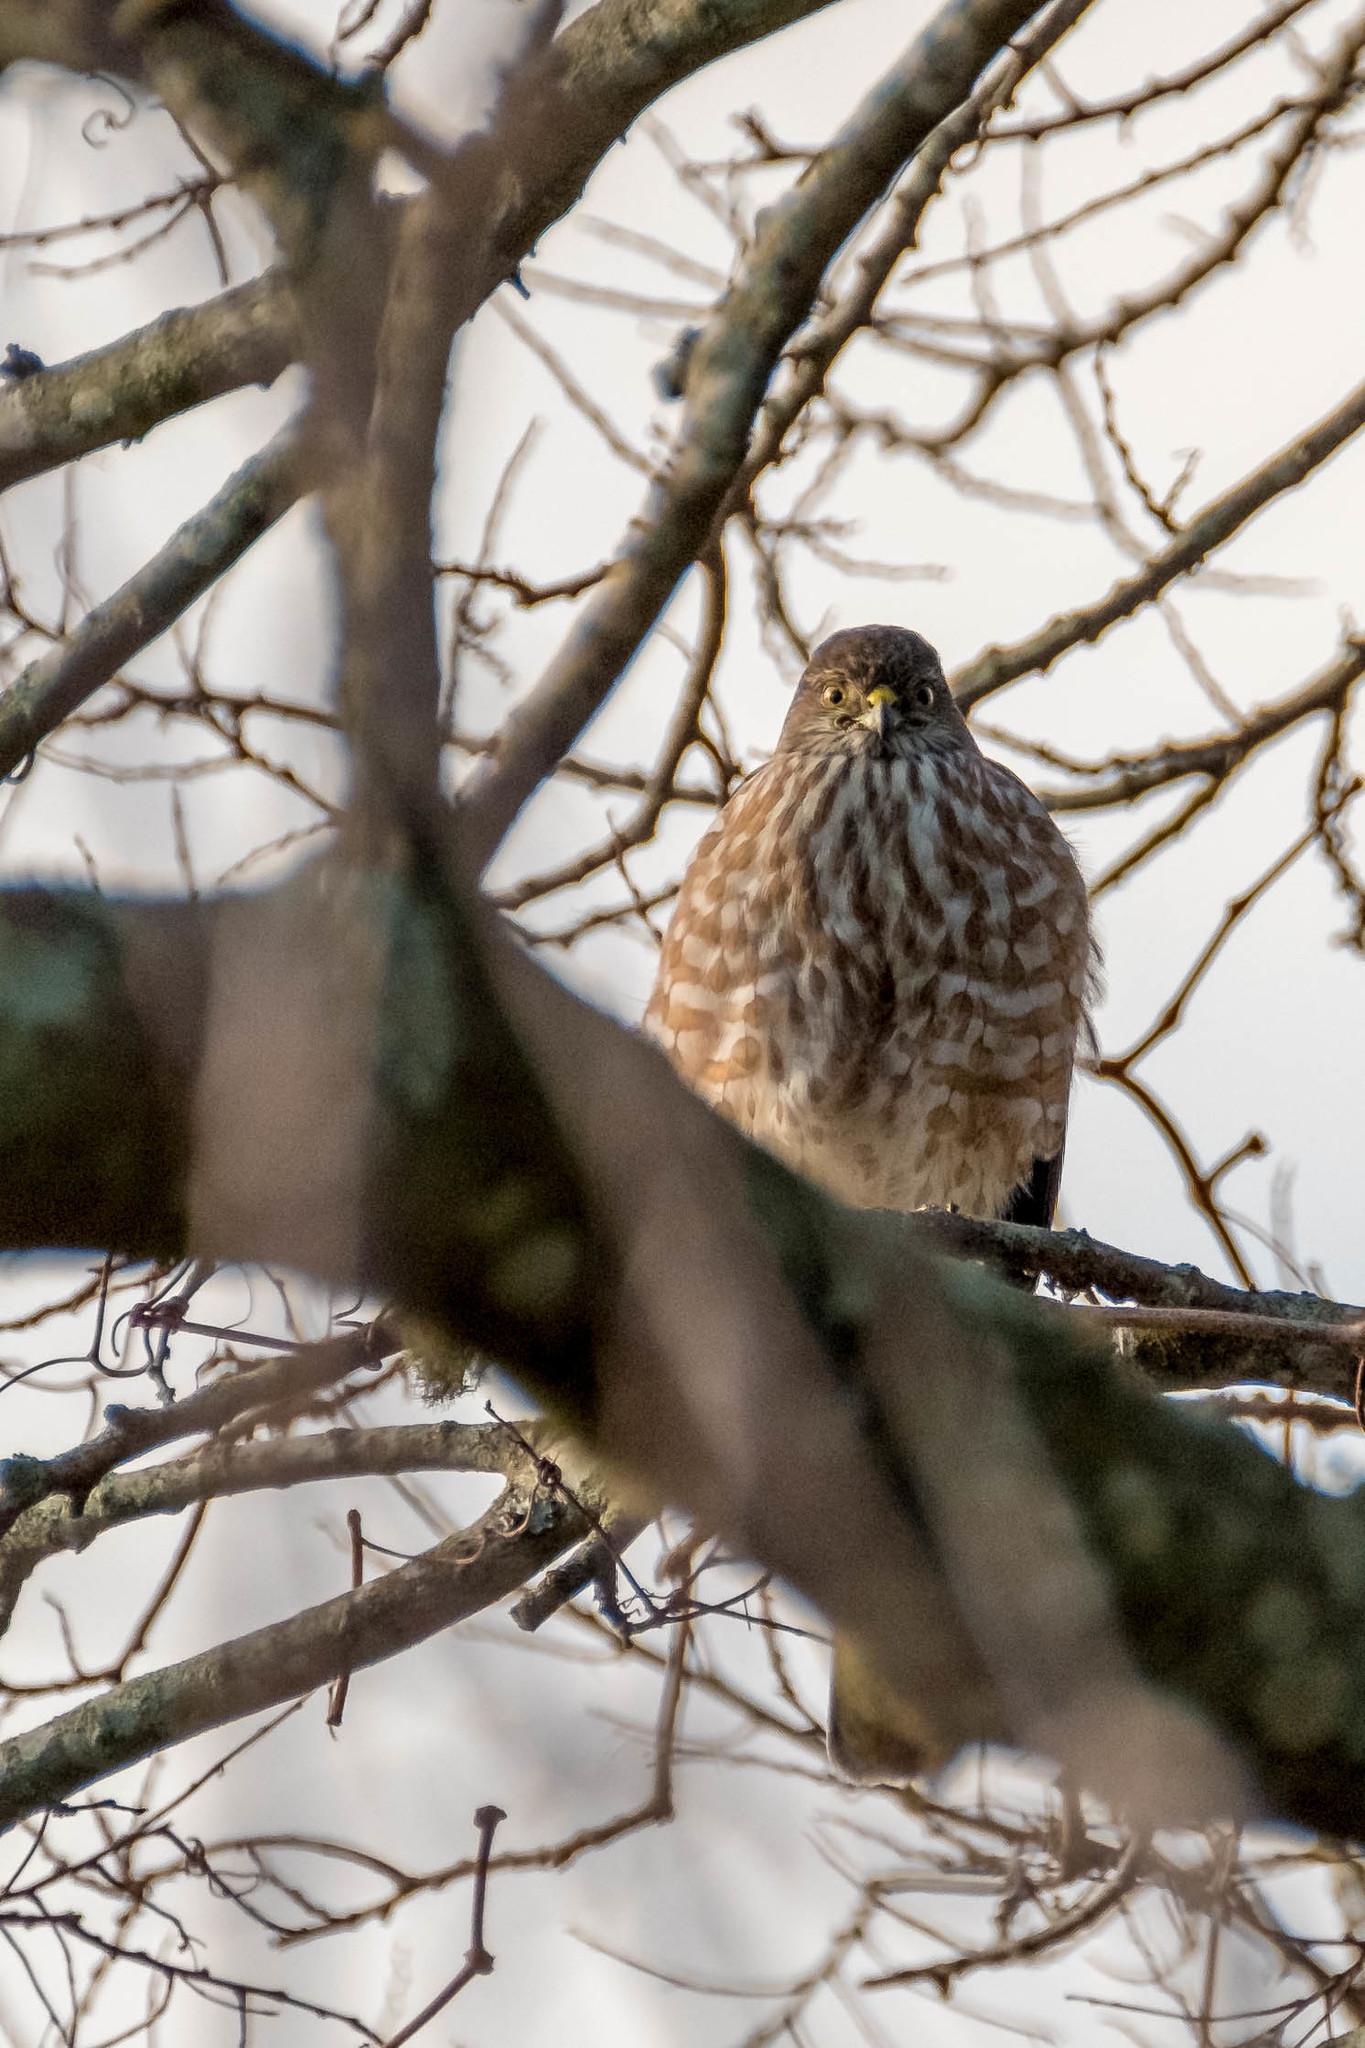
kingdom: Animalia
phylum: Chordata
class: Aves
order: Accipitriformes
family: Accipitridae
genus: Accipiter
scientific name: Accipiter striatus
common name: Sharp-shinned hawk
